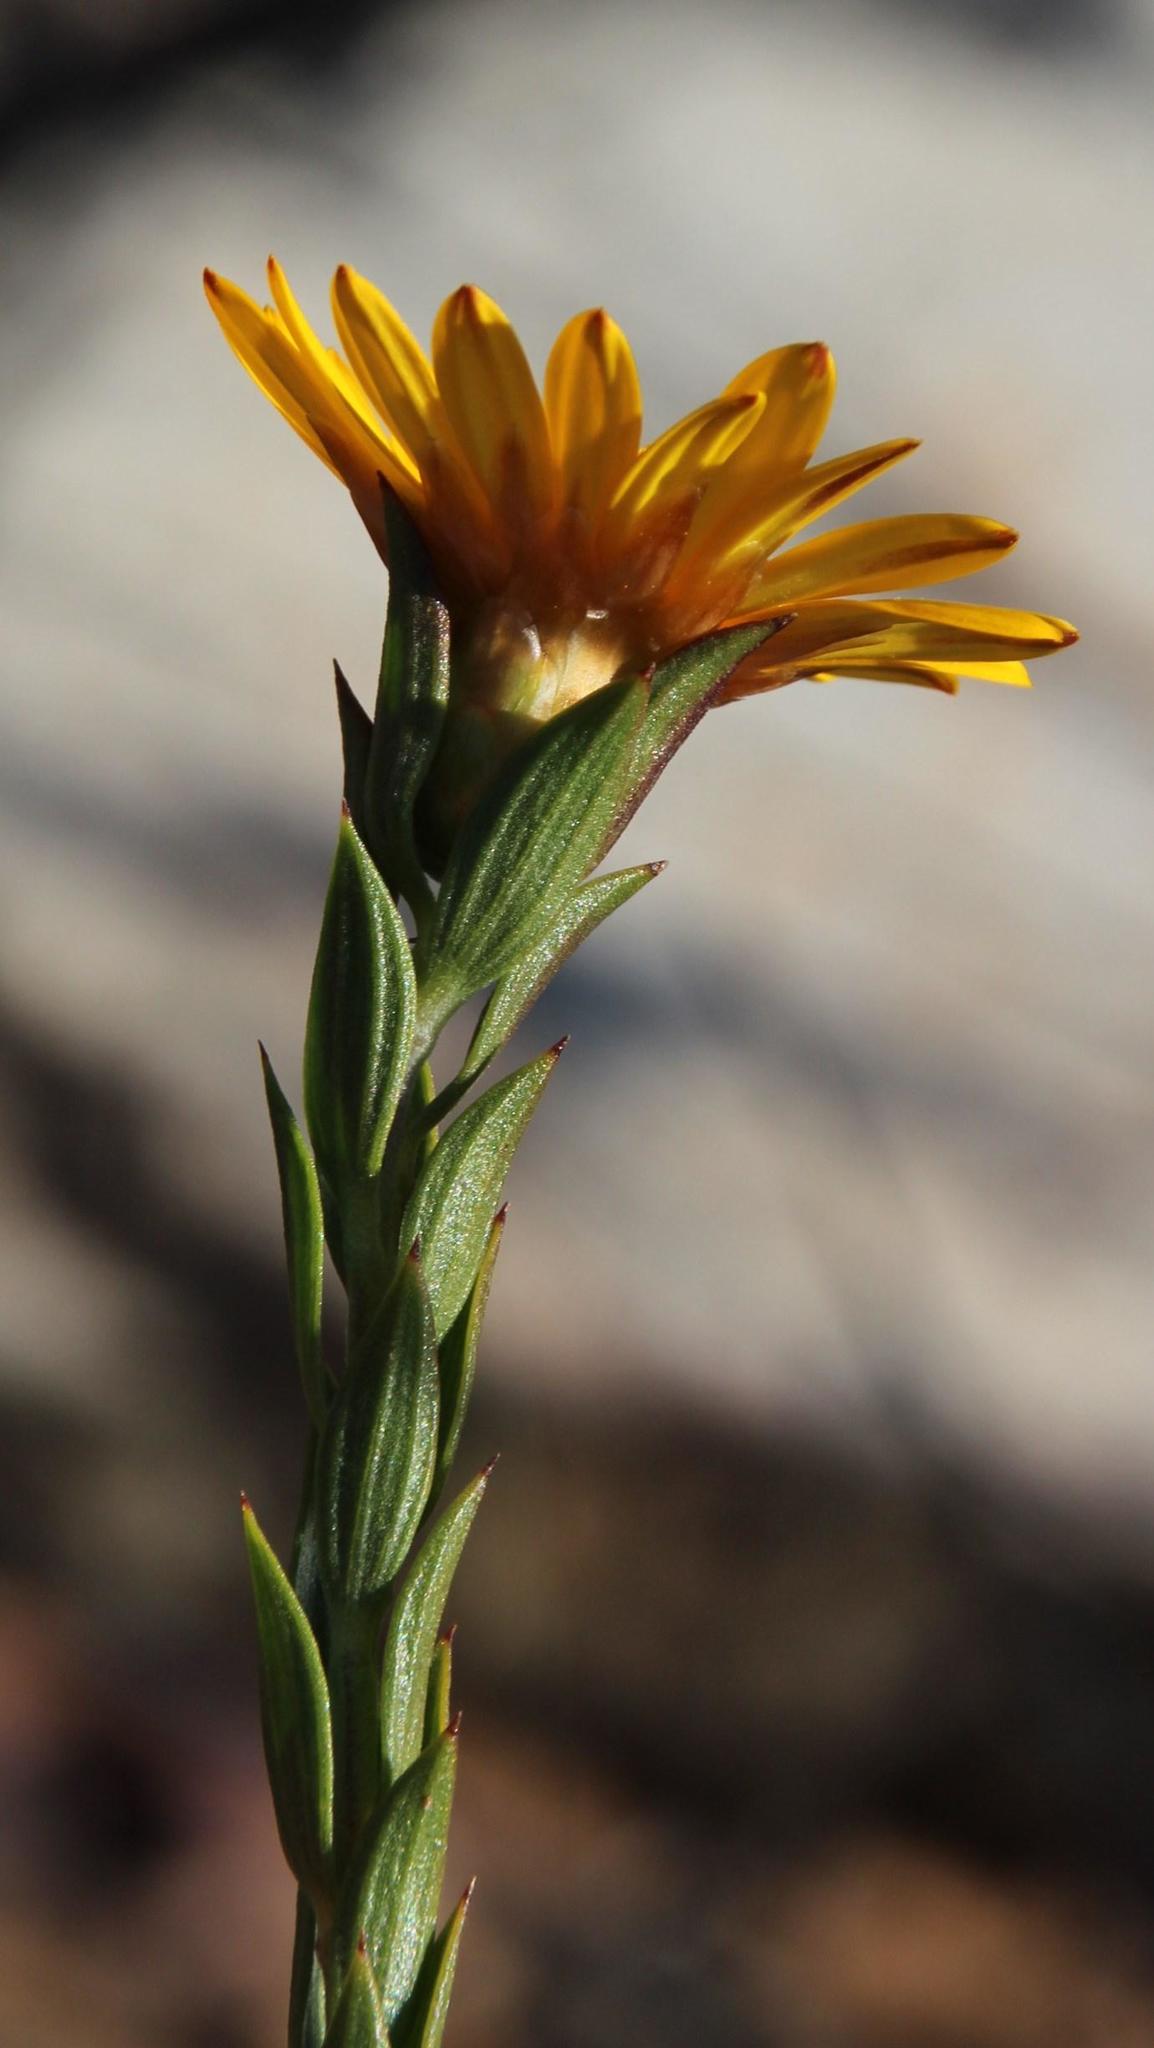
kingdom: Plantae
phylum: Tracheophyta
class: Magnoliopsida
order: Asterales
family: Asteraceae
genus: Oedera
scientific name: Oedera calycina
